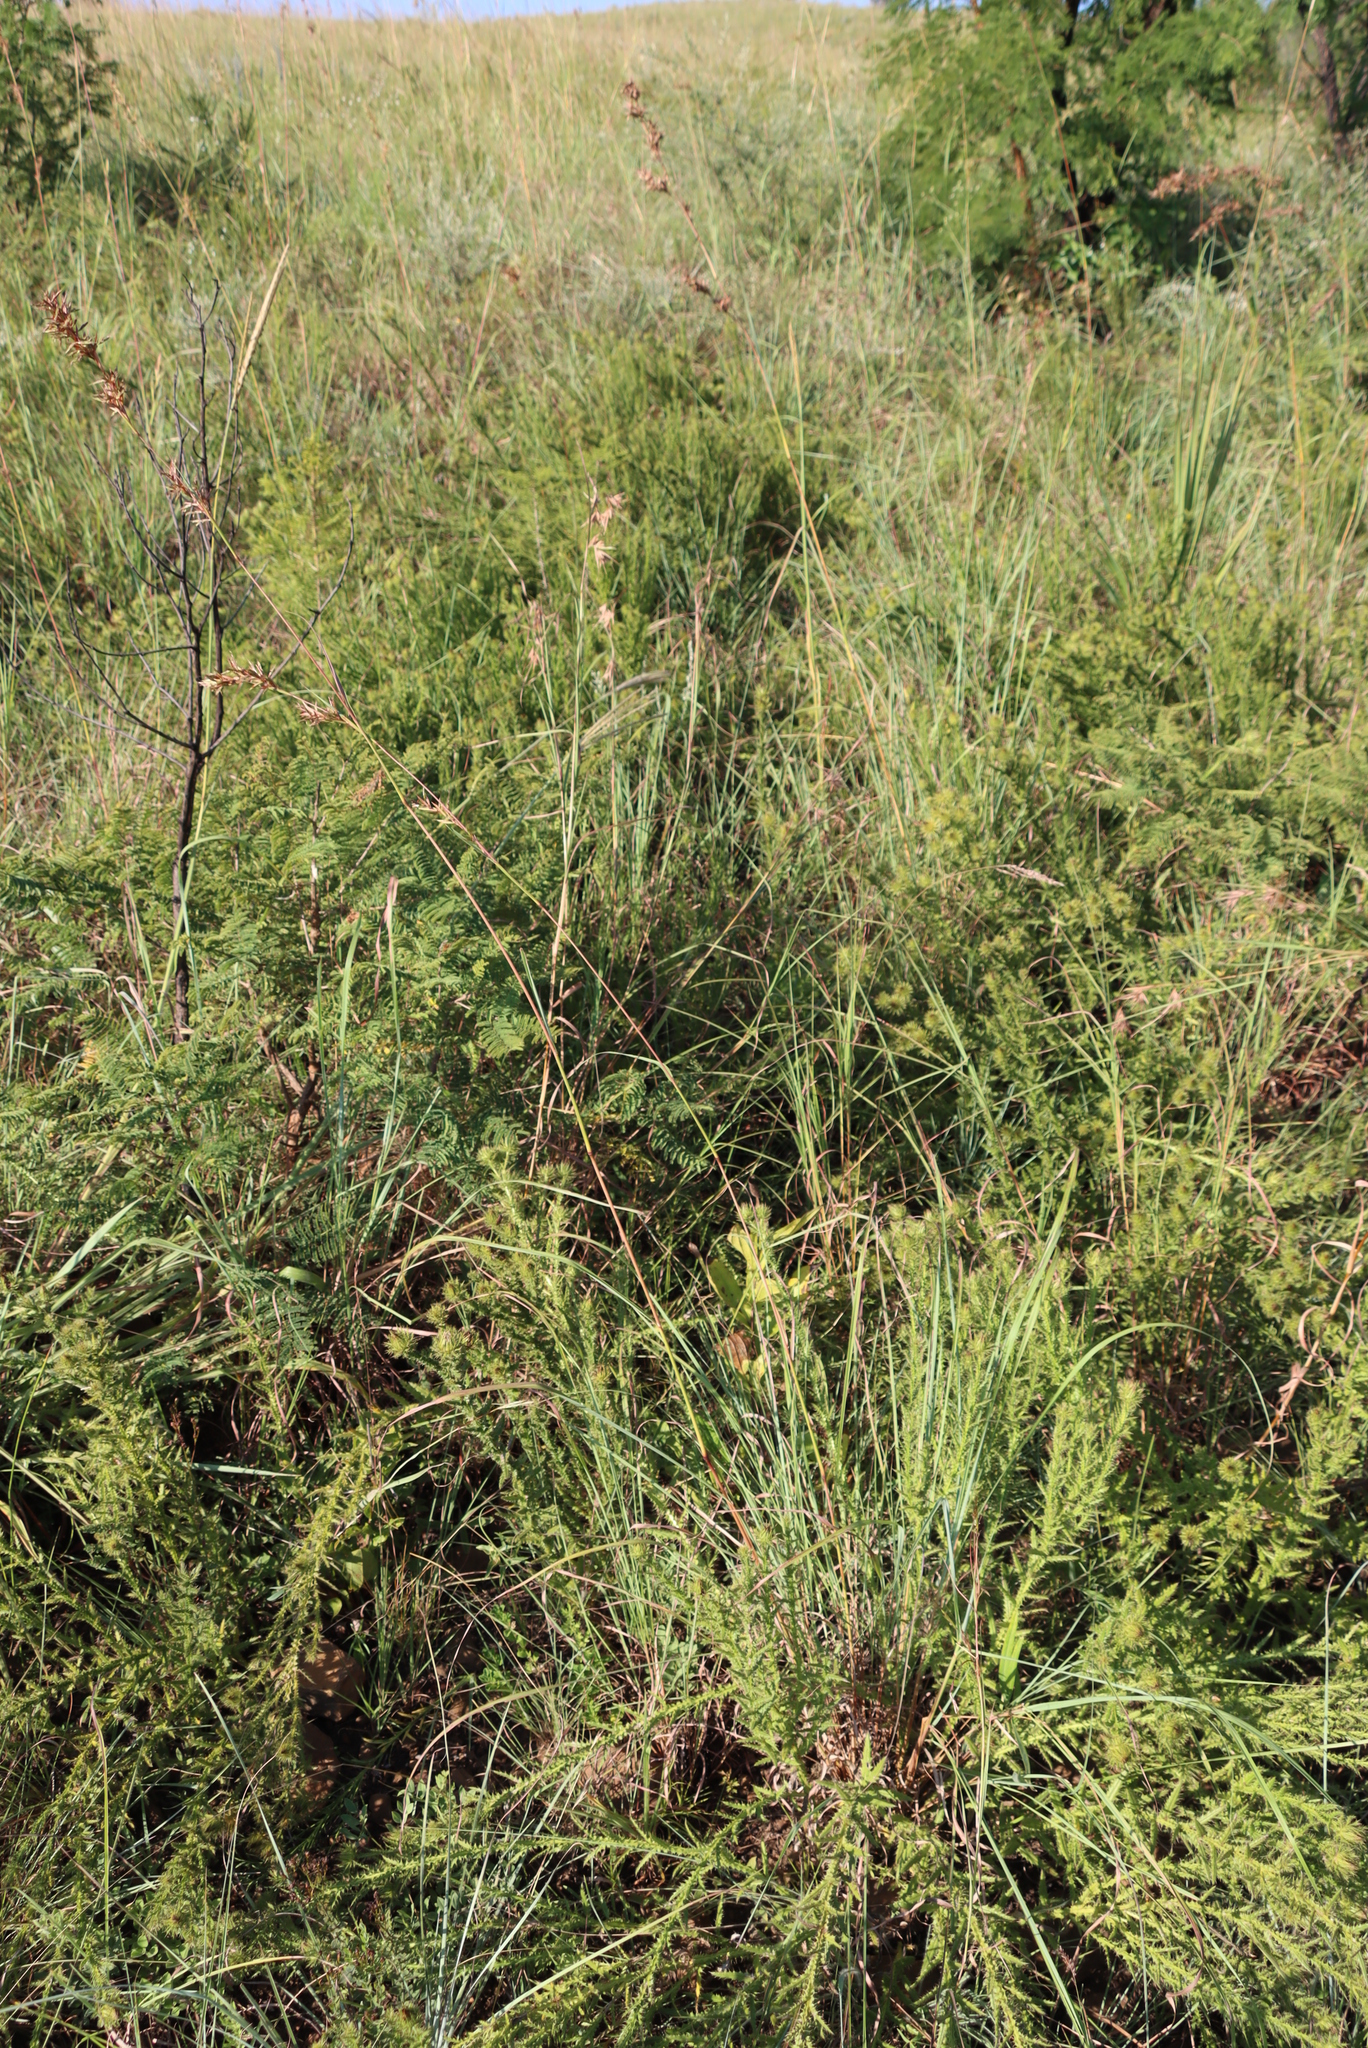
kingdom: Plantae
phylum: Tracheophyta
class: Magnoliopsida
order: Asterales
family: Asteraceae
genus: Macledium
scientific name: Macledium zeyheri
